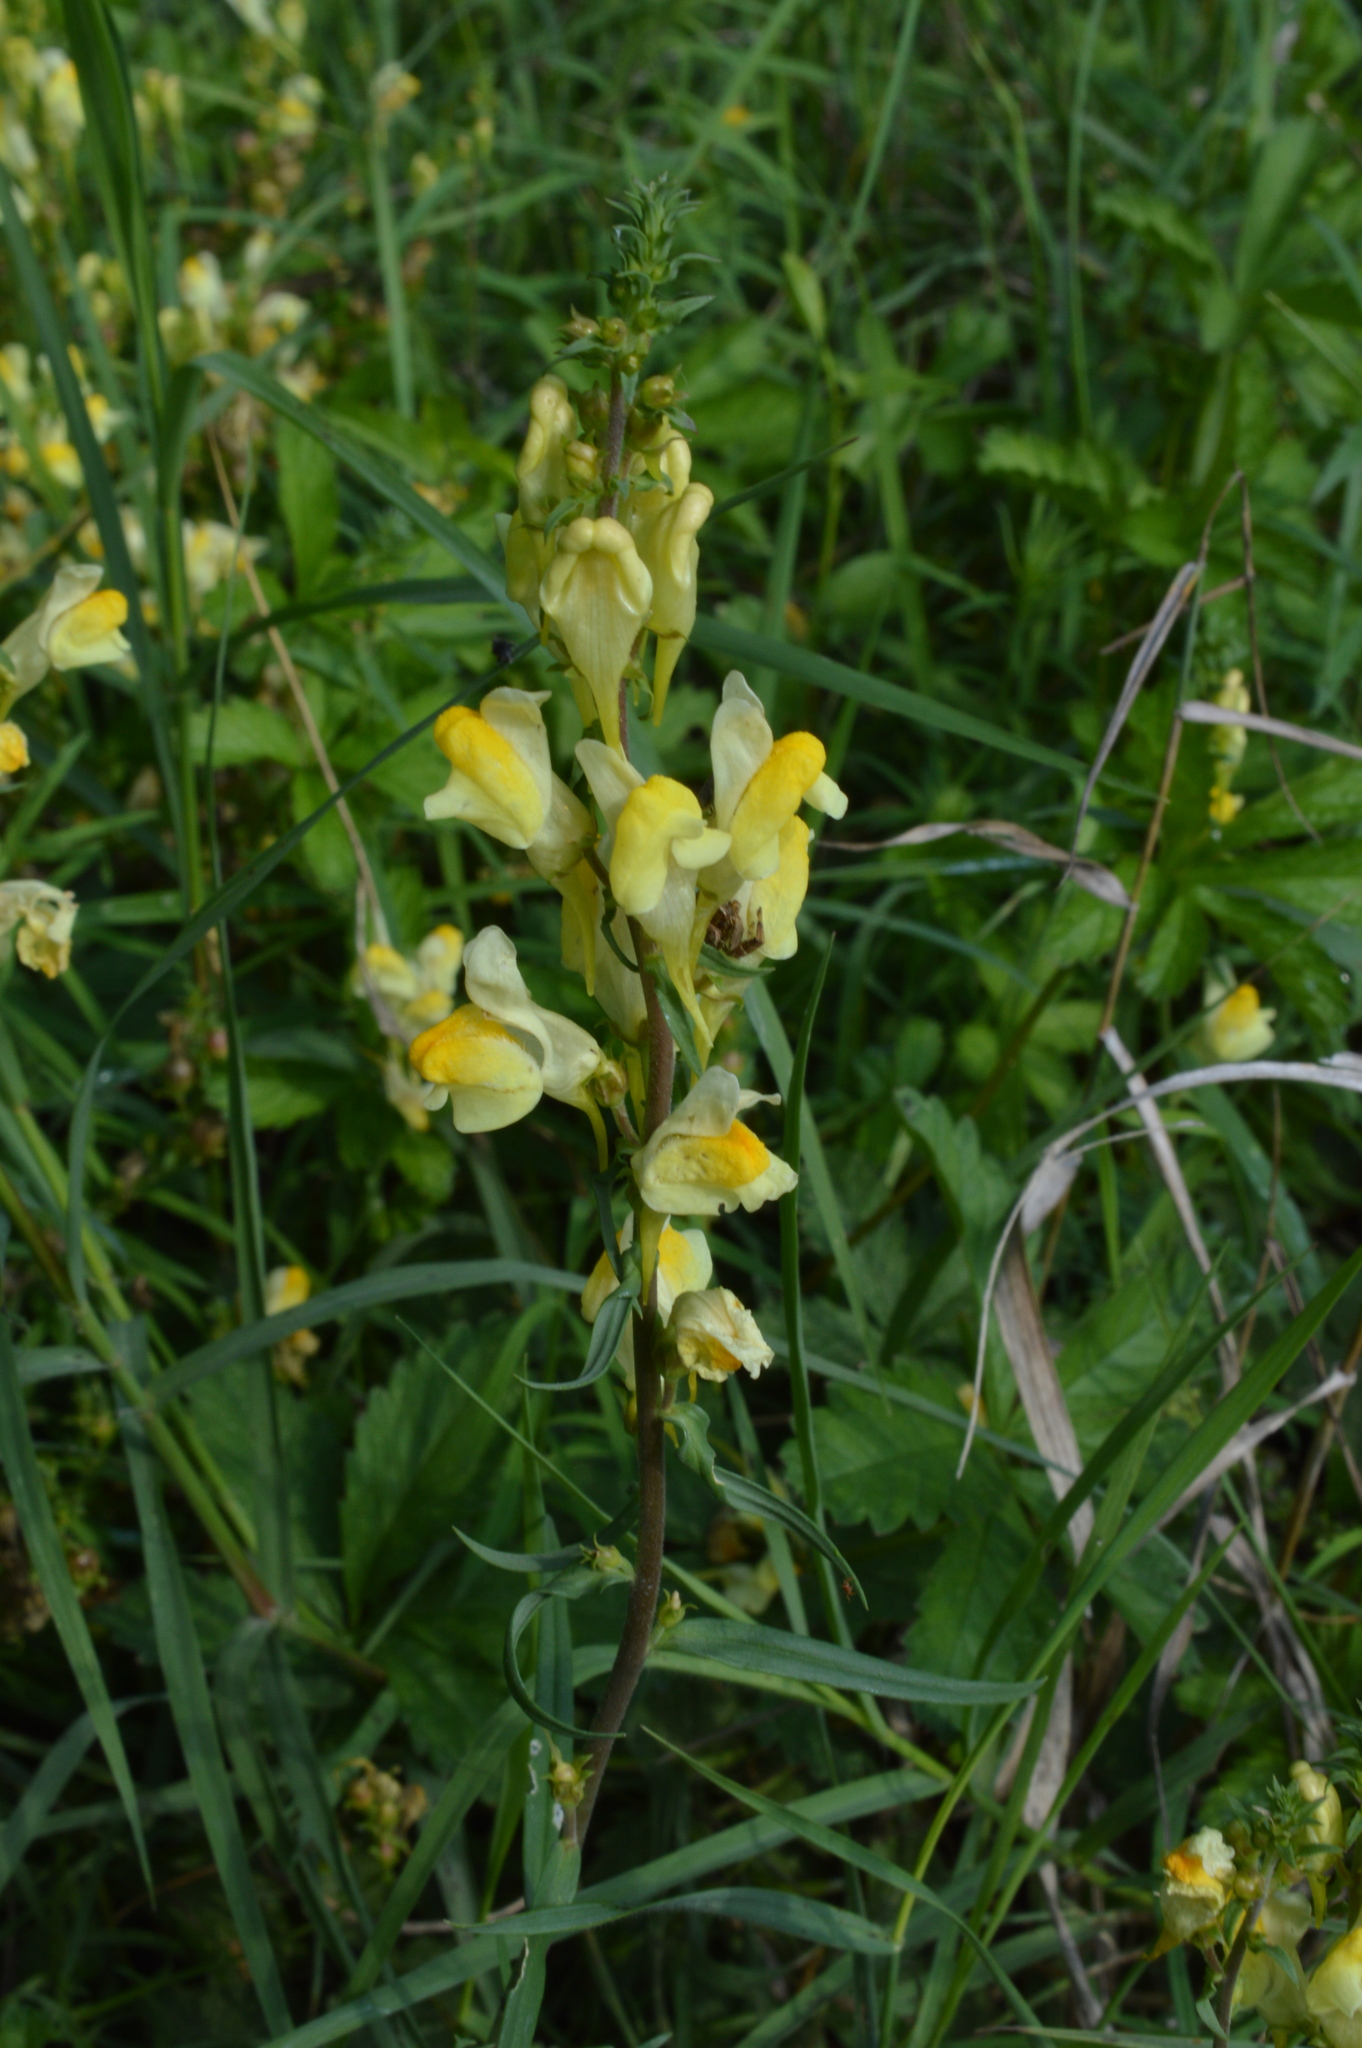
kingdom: Plantae
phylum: Tracheophyta
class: Magnoliopsida
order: Lamiales
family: Plantaginaceae
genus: Linaria
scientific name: Linaria vulgaris
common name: Butter and eggs
